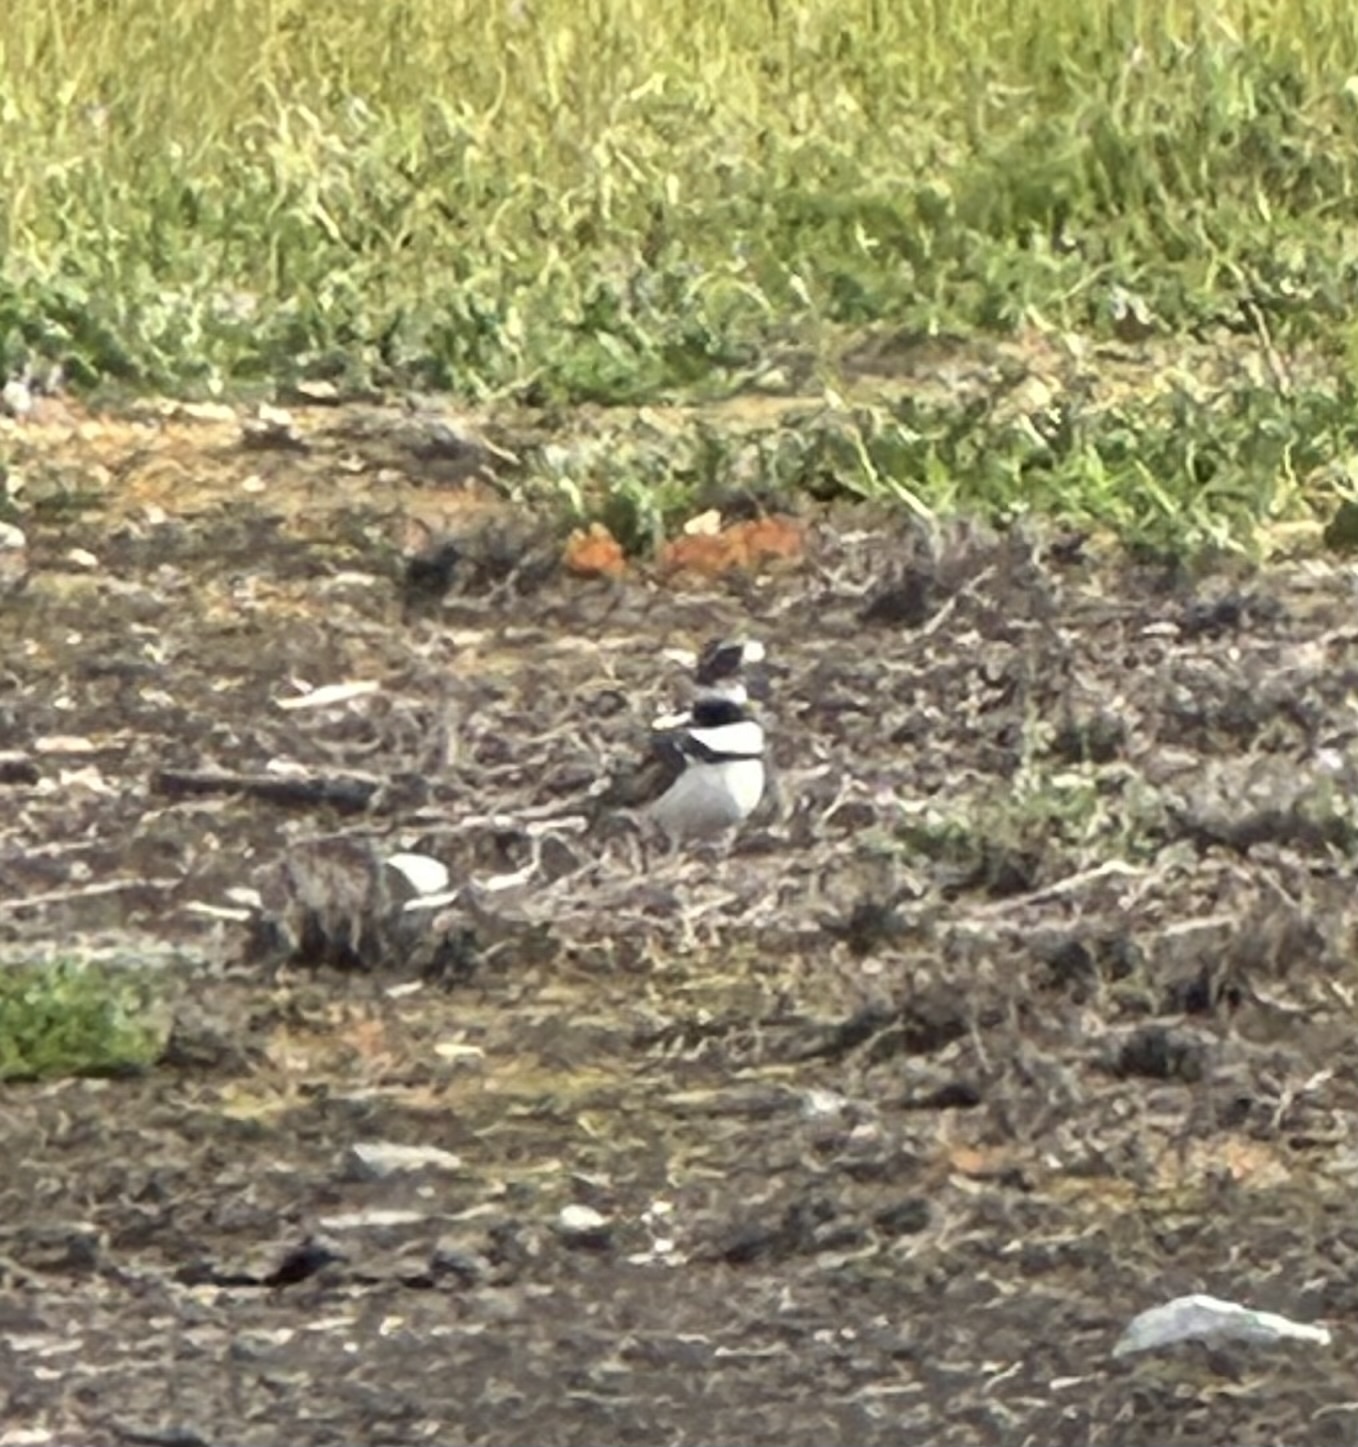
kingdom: Animalia
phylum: Chordata
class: Aves
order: Charadriiformes
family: Charadriidae
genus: Charadrius
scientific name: Charadrius vociferus
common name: Killdeer
